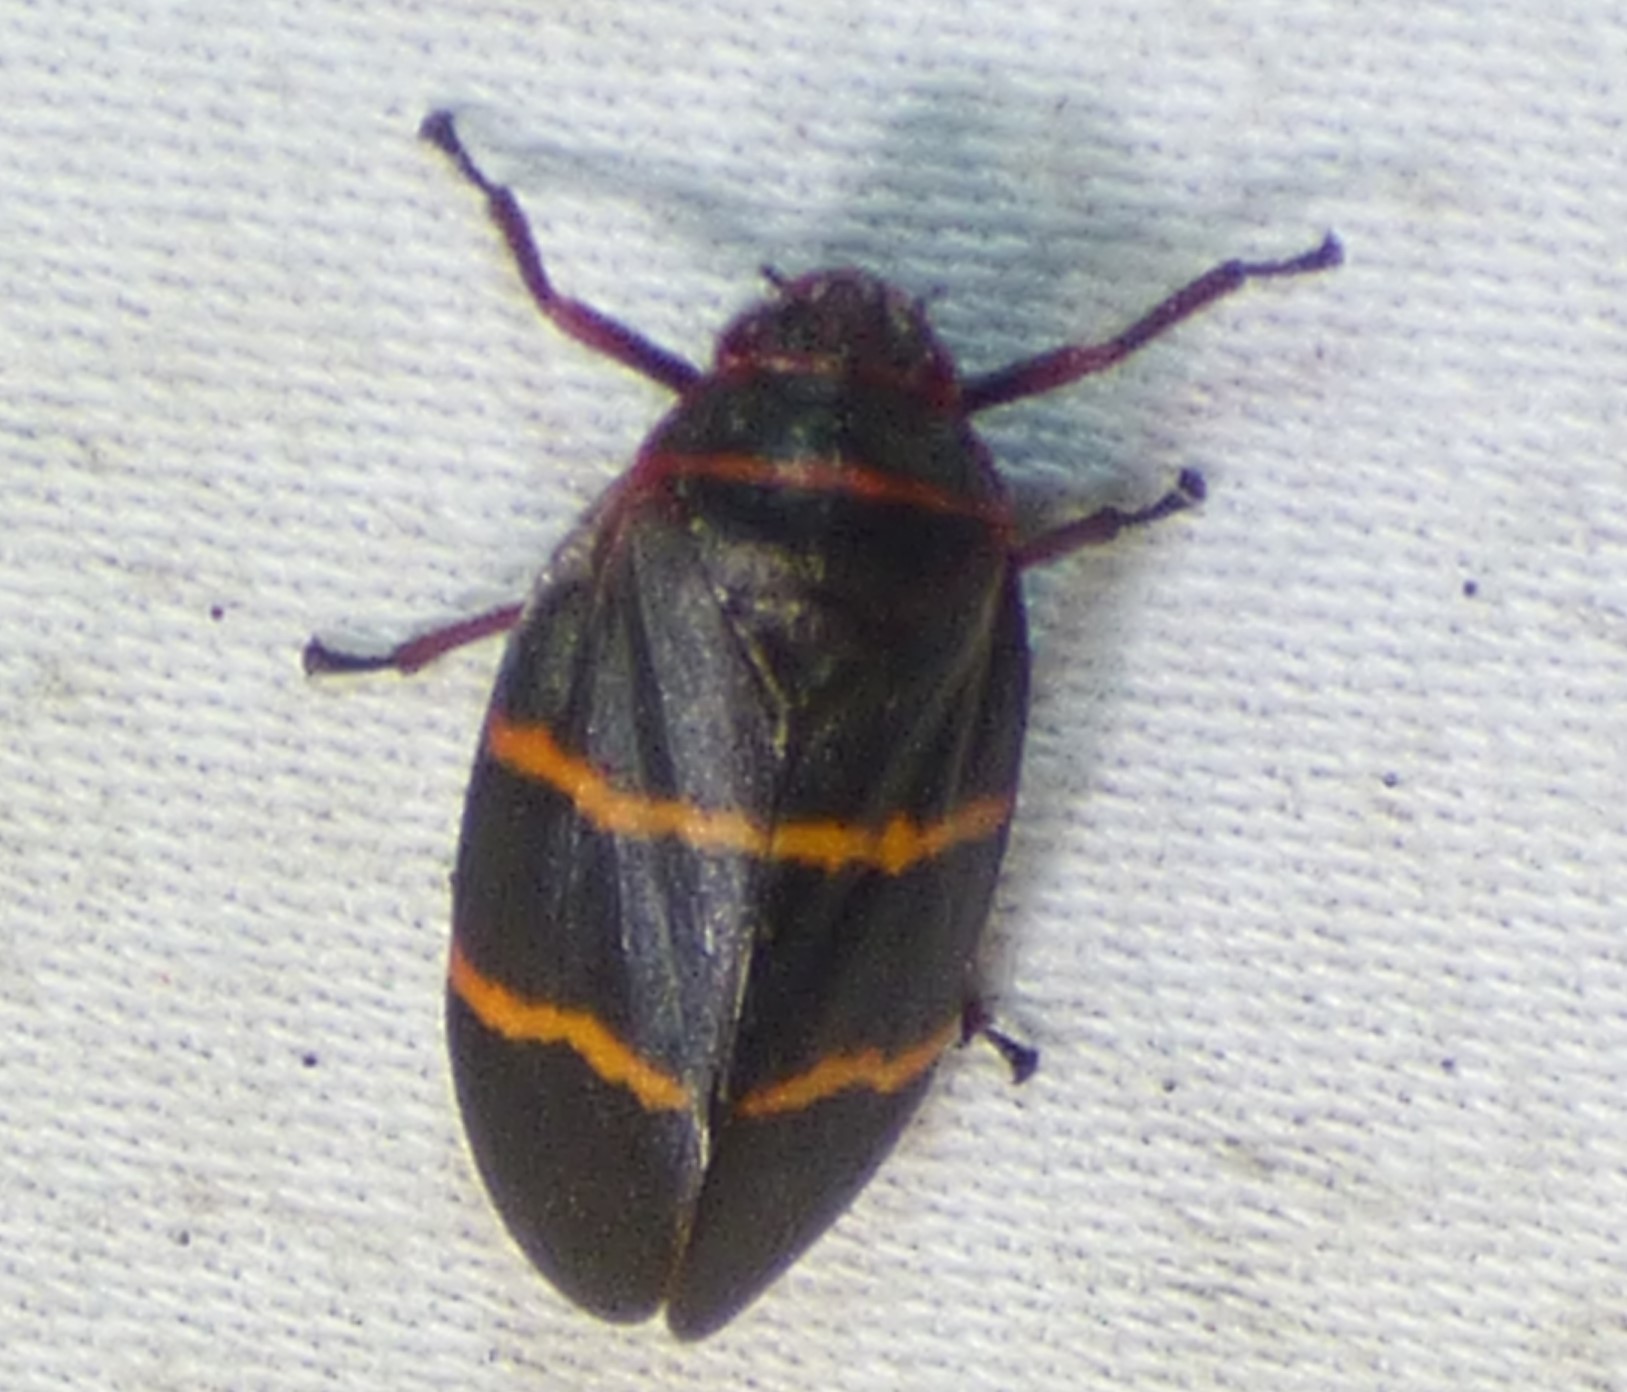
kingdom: Animalia
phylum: Arthropoda
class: Insecta
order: Hemiptera
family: Cercopidae
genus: Prosapia
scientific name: Prosapia bicincta
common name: Twolined spittlebug
